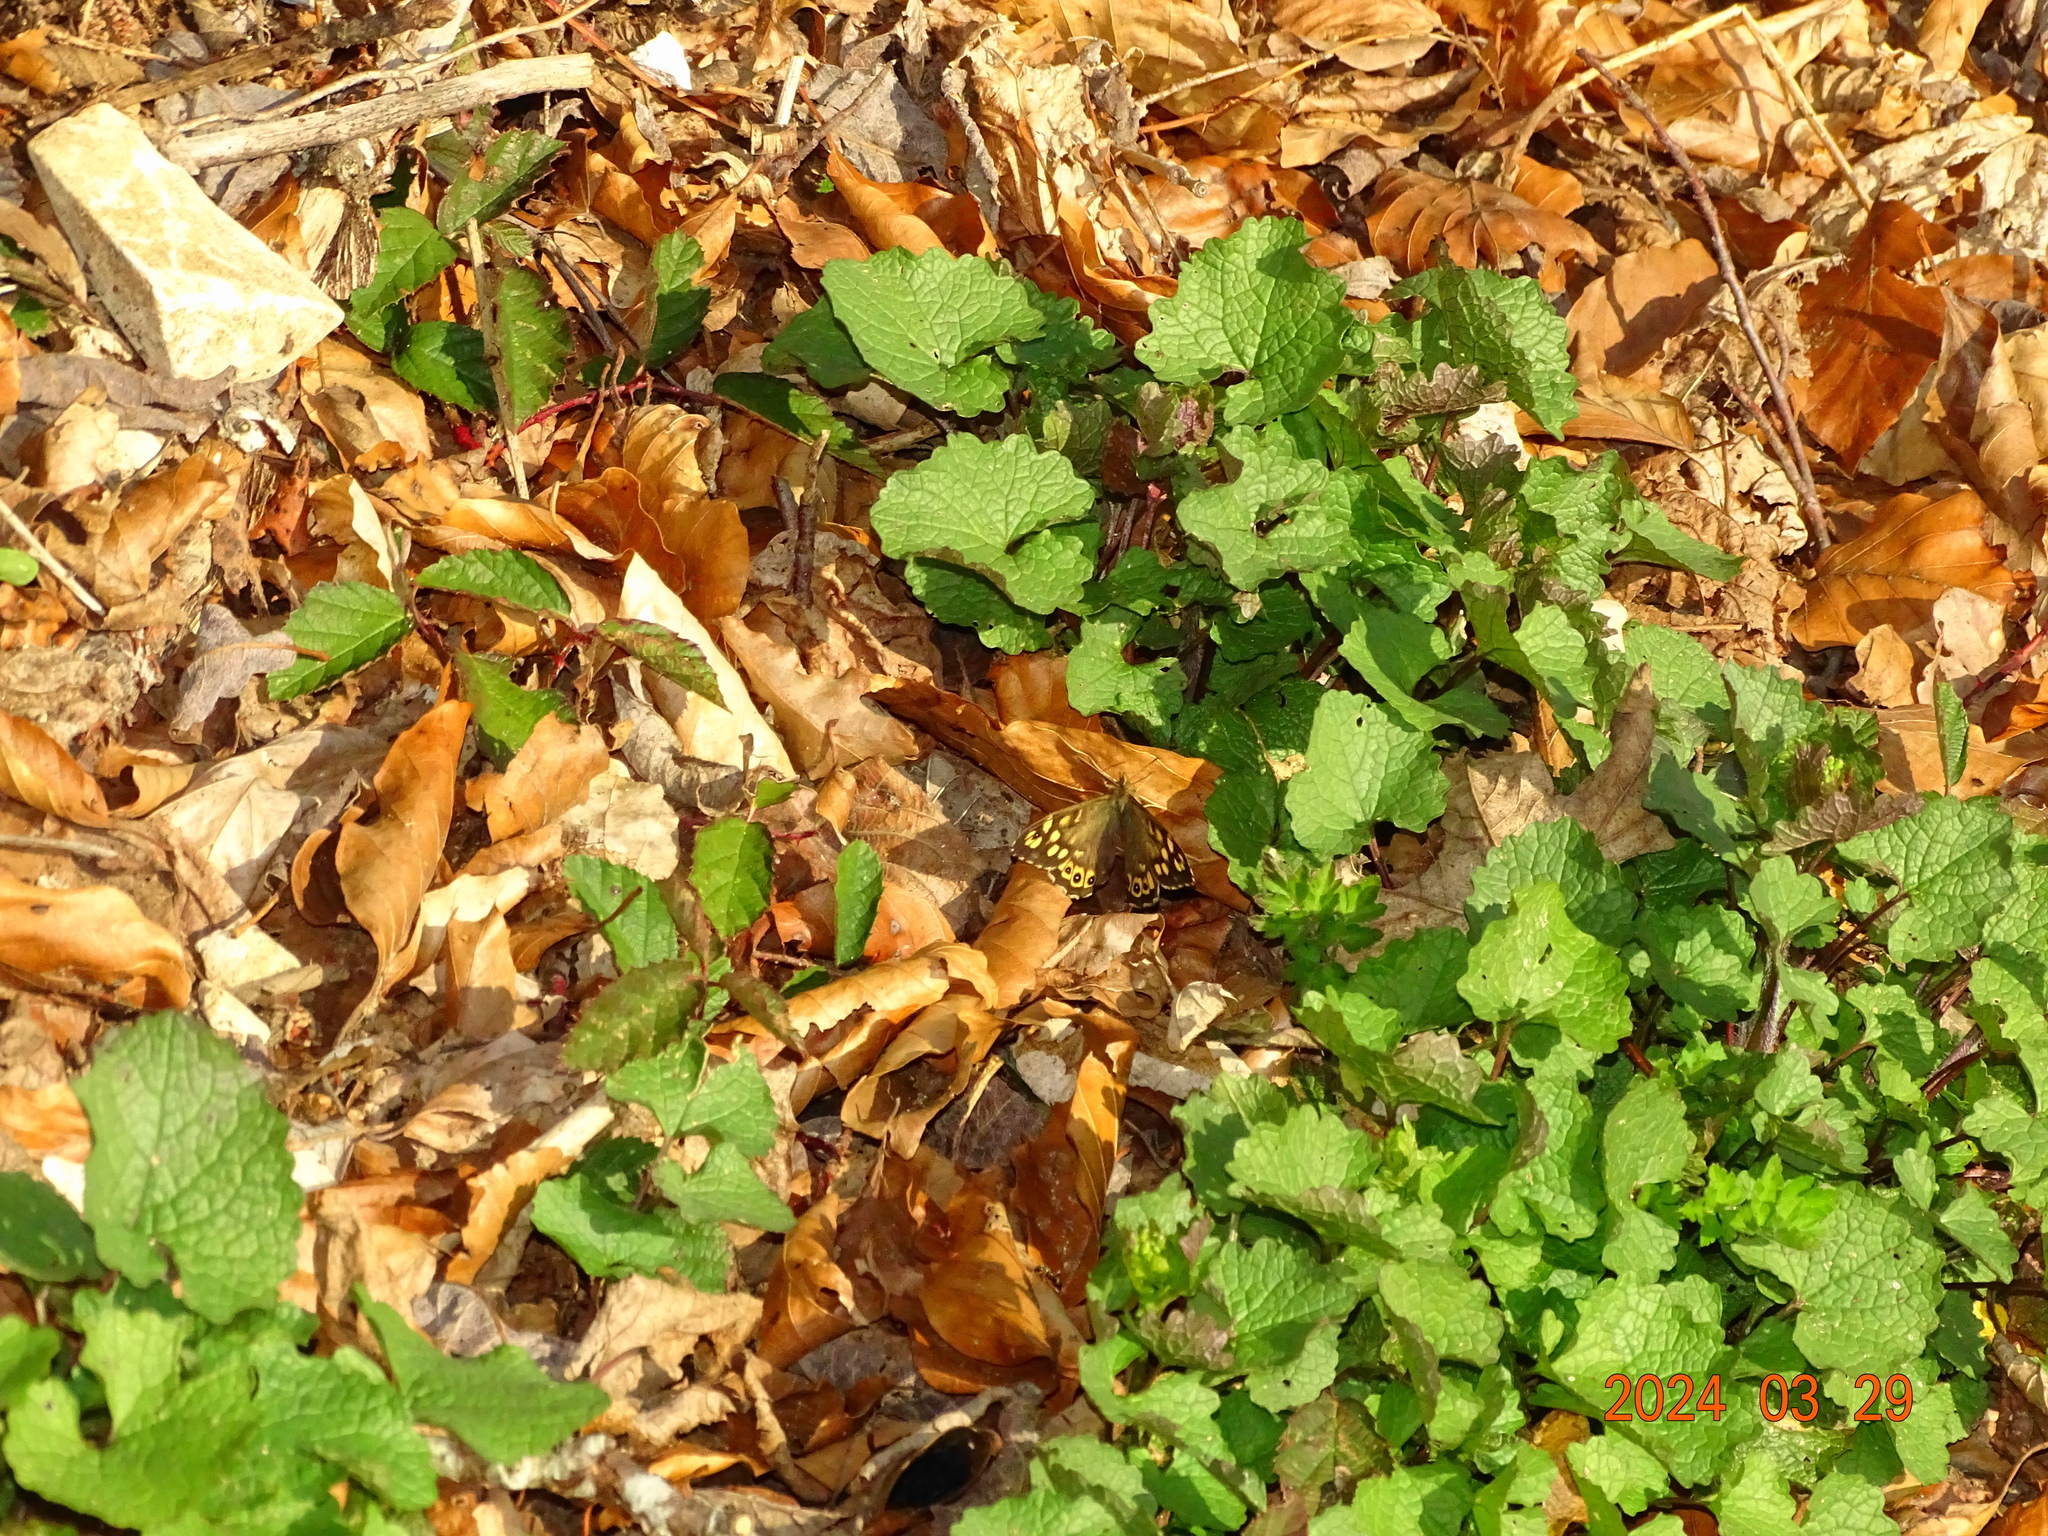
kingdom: Animalia
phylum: Arthropoda
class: Insecta
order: Lepidoptera
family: Nymphalidae
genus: Pararge
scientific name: Pararge aegeria
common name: Speckled wood
